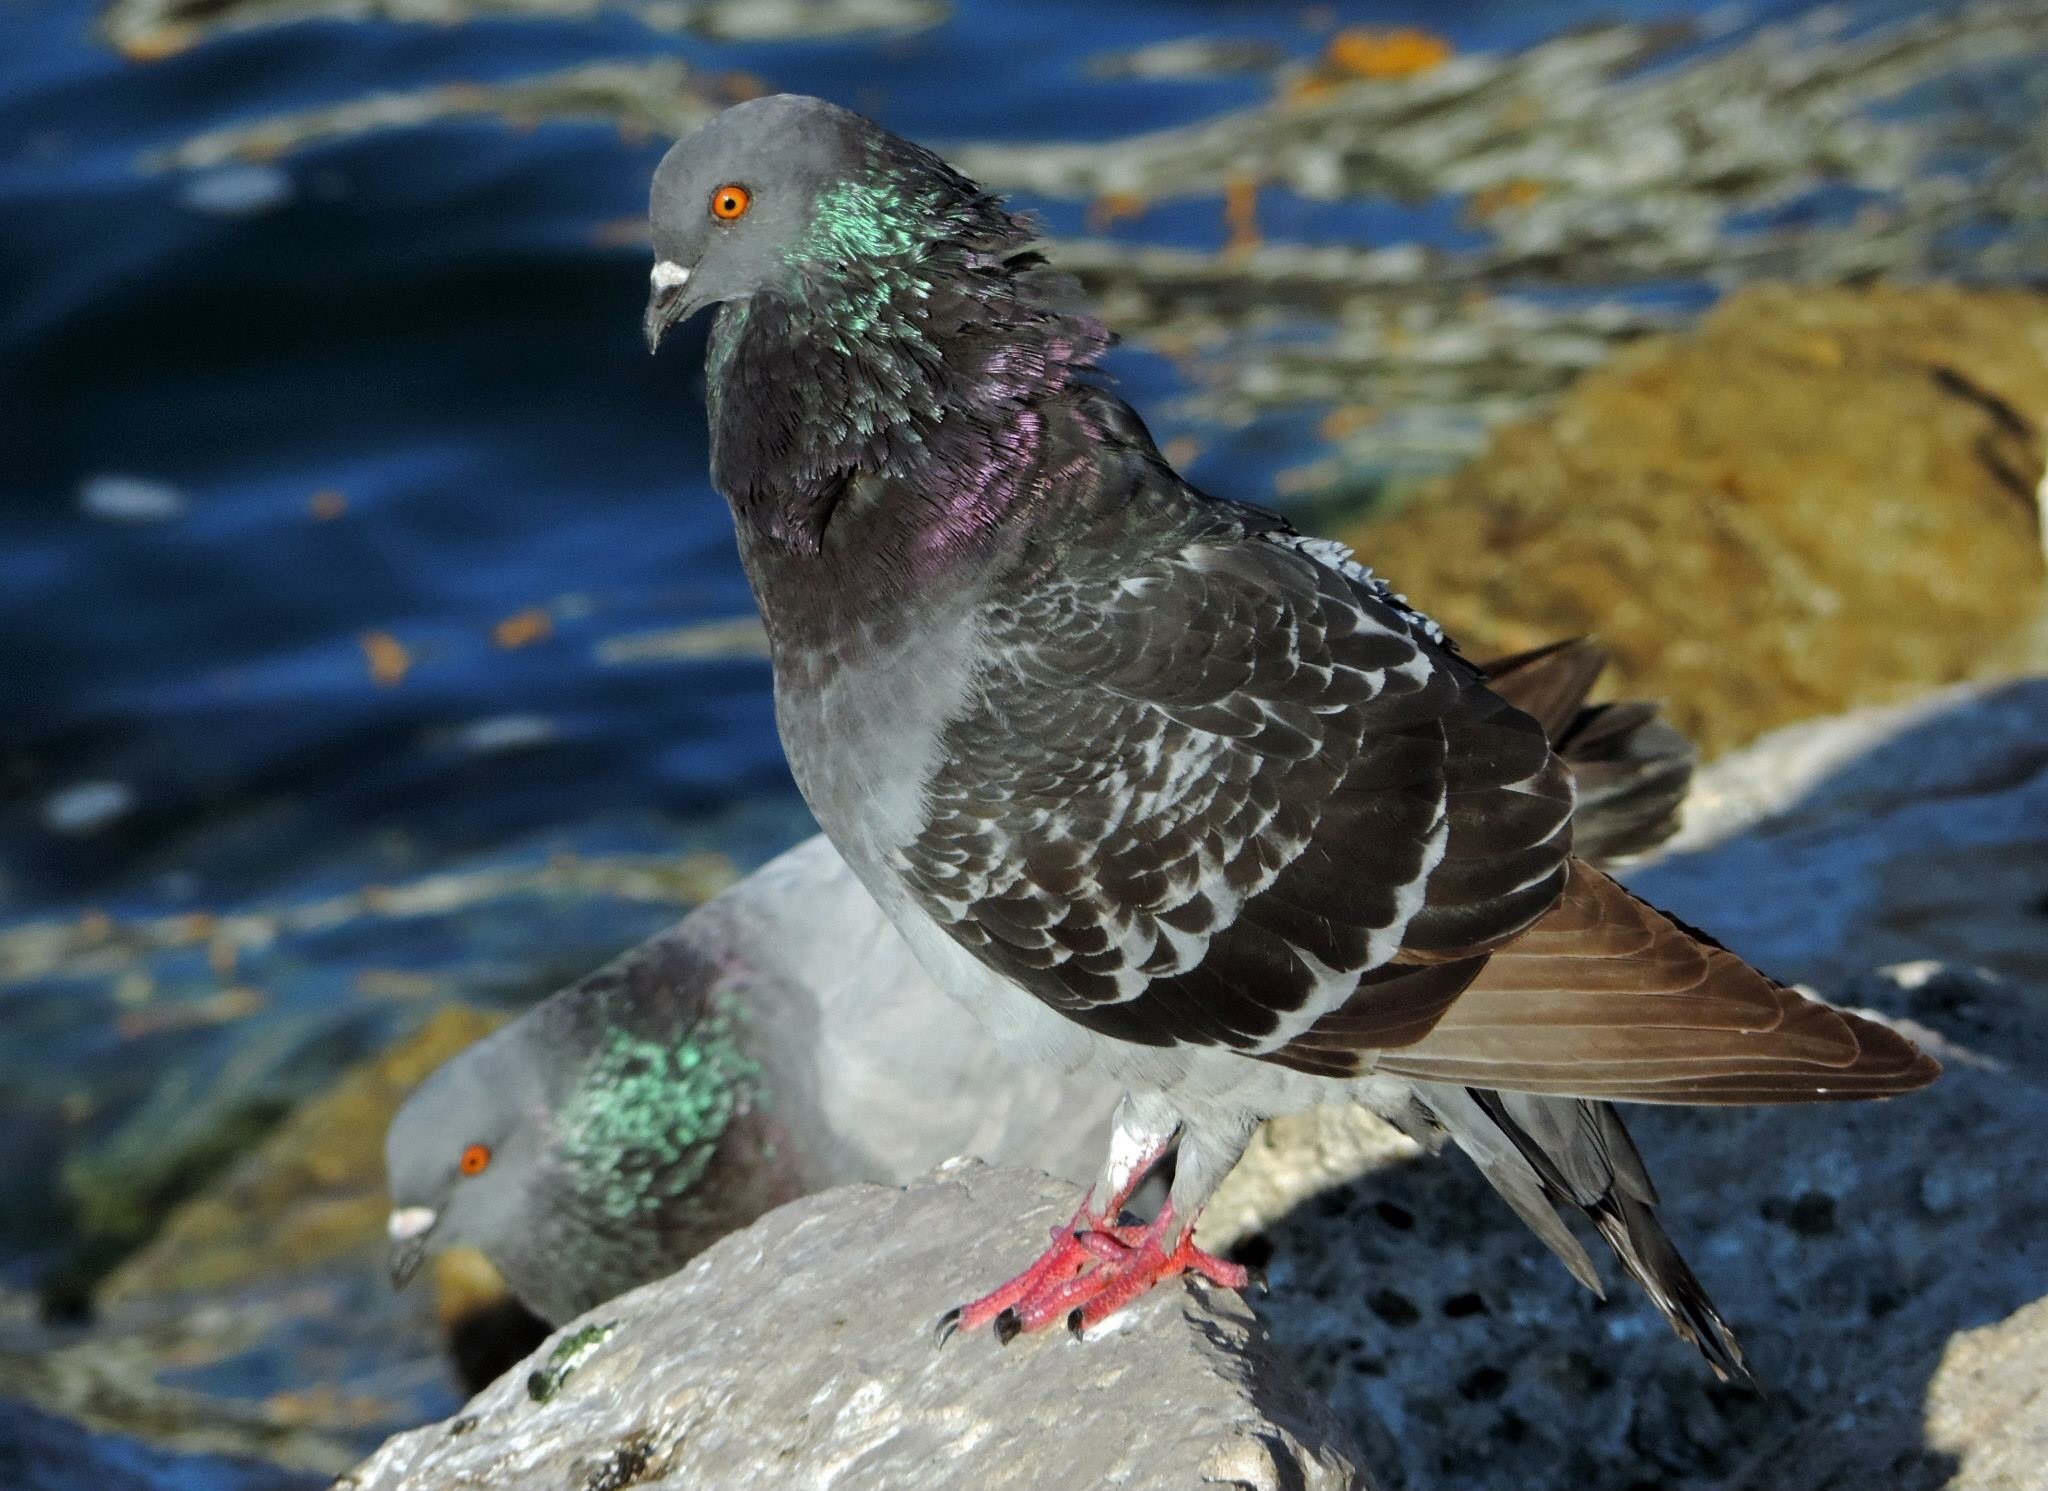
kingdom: Animalia
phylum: Chordata
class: Aves
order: Columbiformes
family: Columbidae
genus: Columba
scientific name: Columba livia
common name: Rock pigeon
